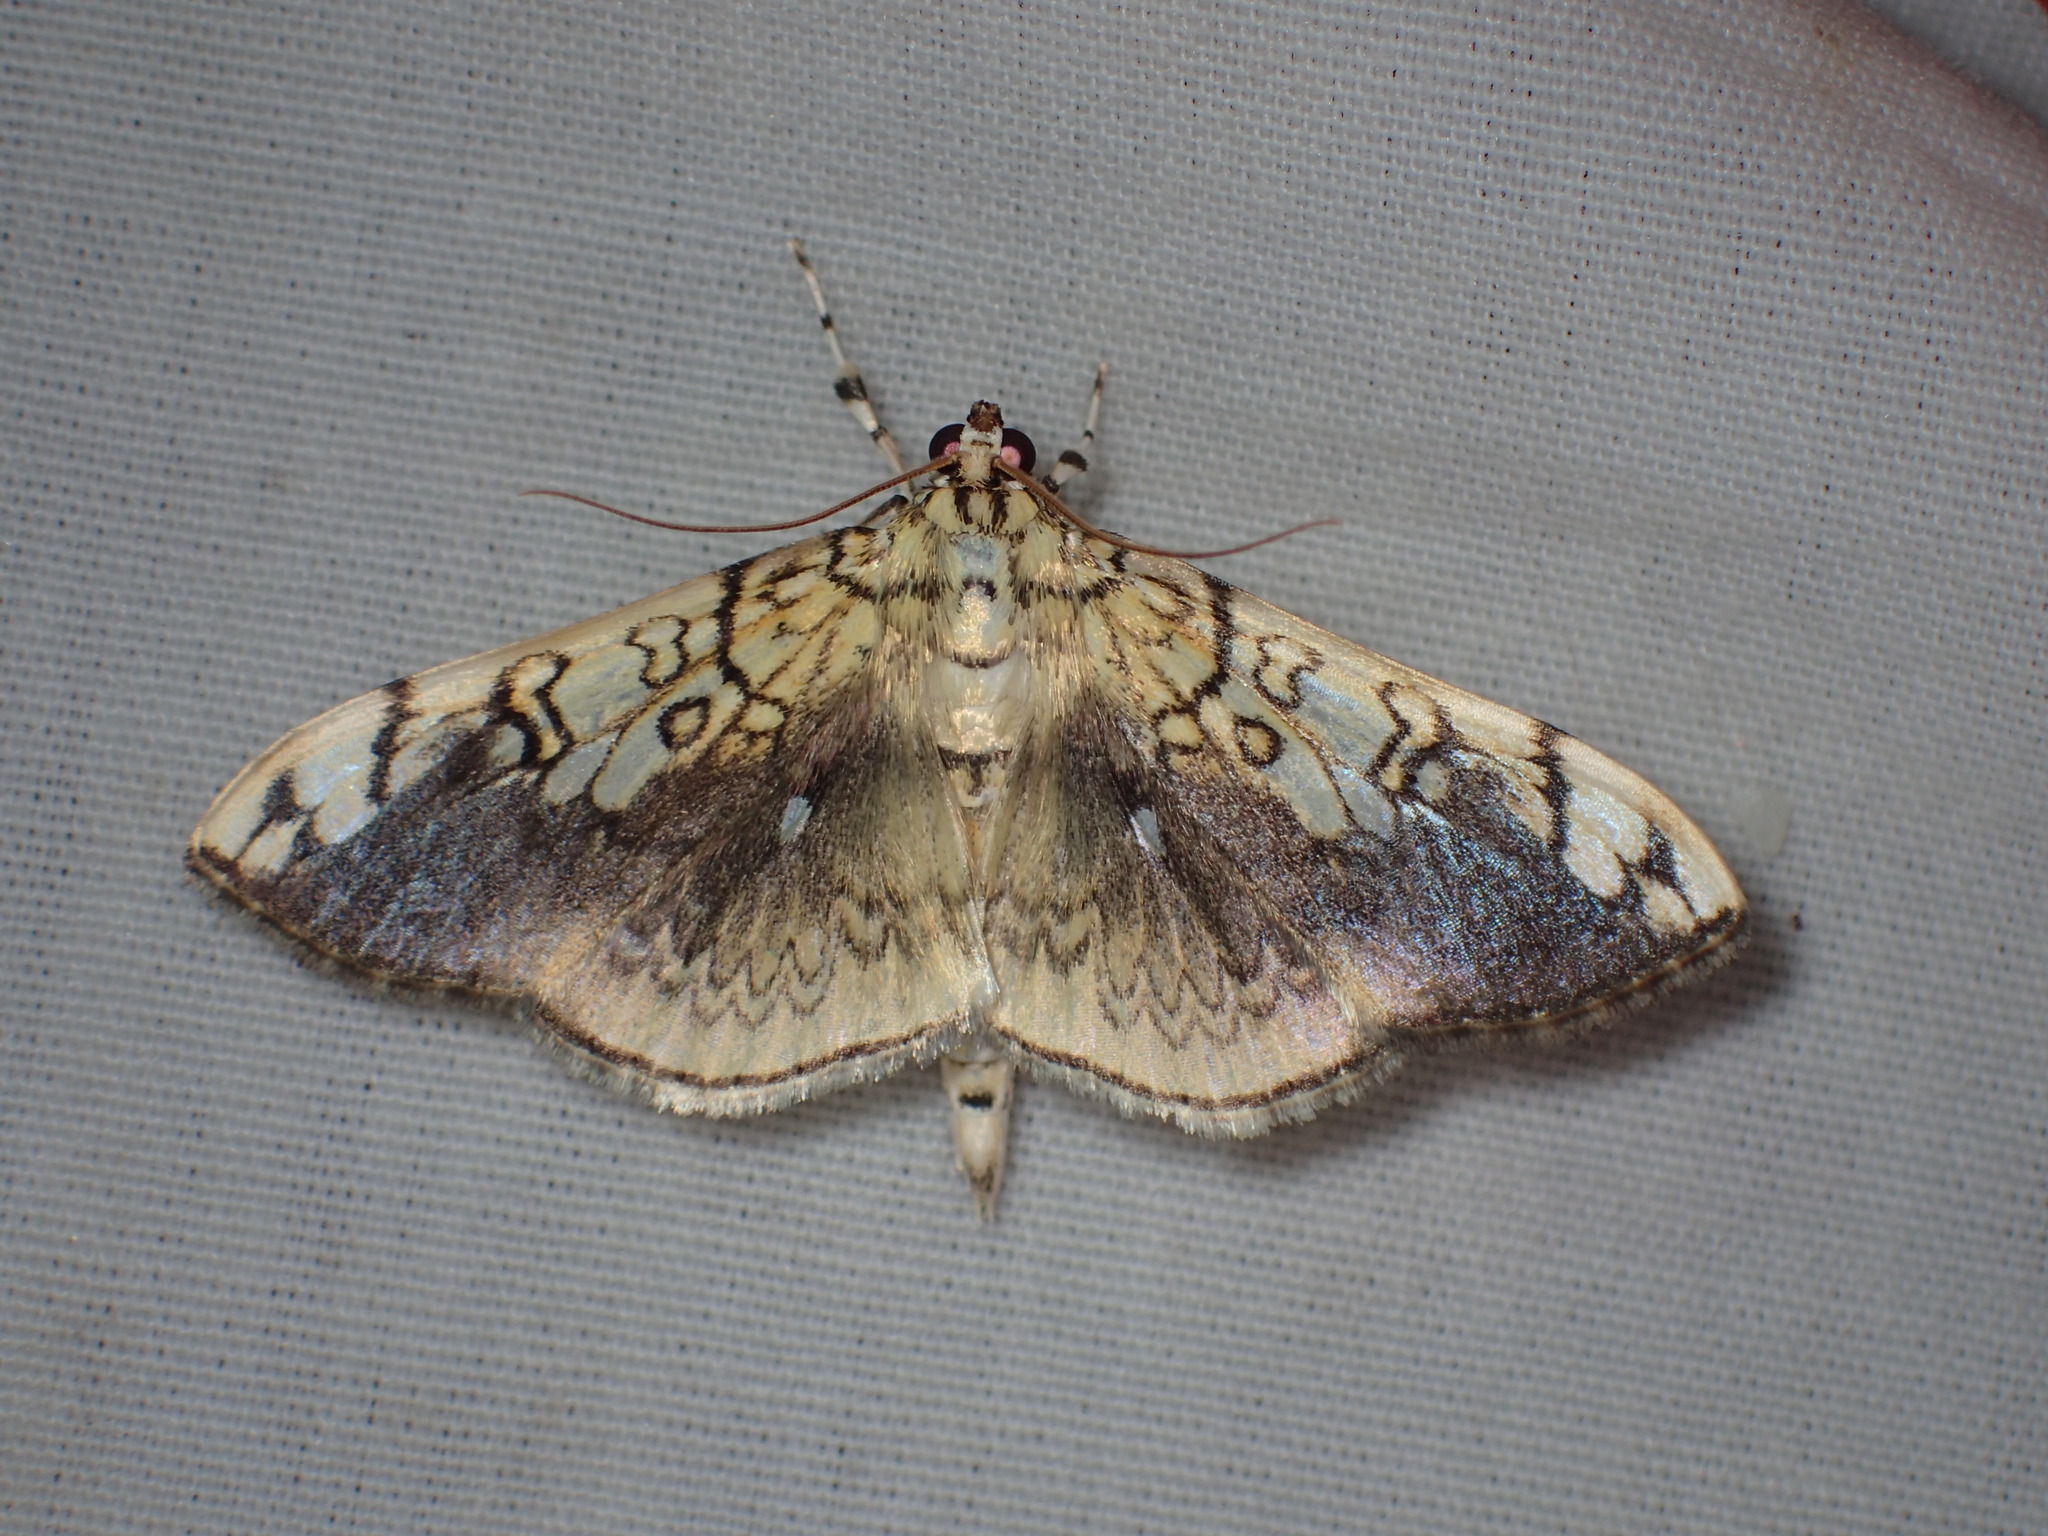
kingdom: Animalia
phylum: Arthropoda
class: Insecta
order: Lepidoptera
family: Crambidae
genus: Pantographa
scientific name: Pantographa limata
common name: Basswood leafroller moth
